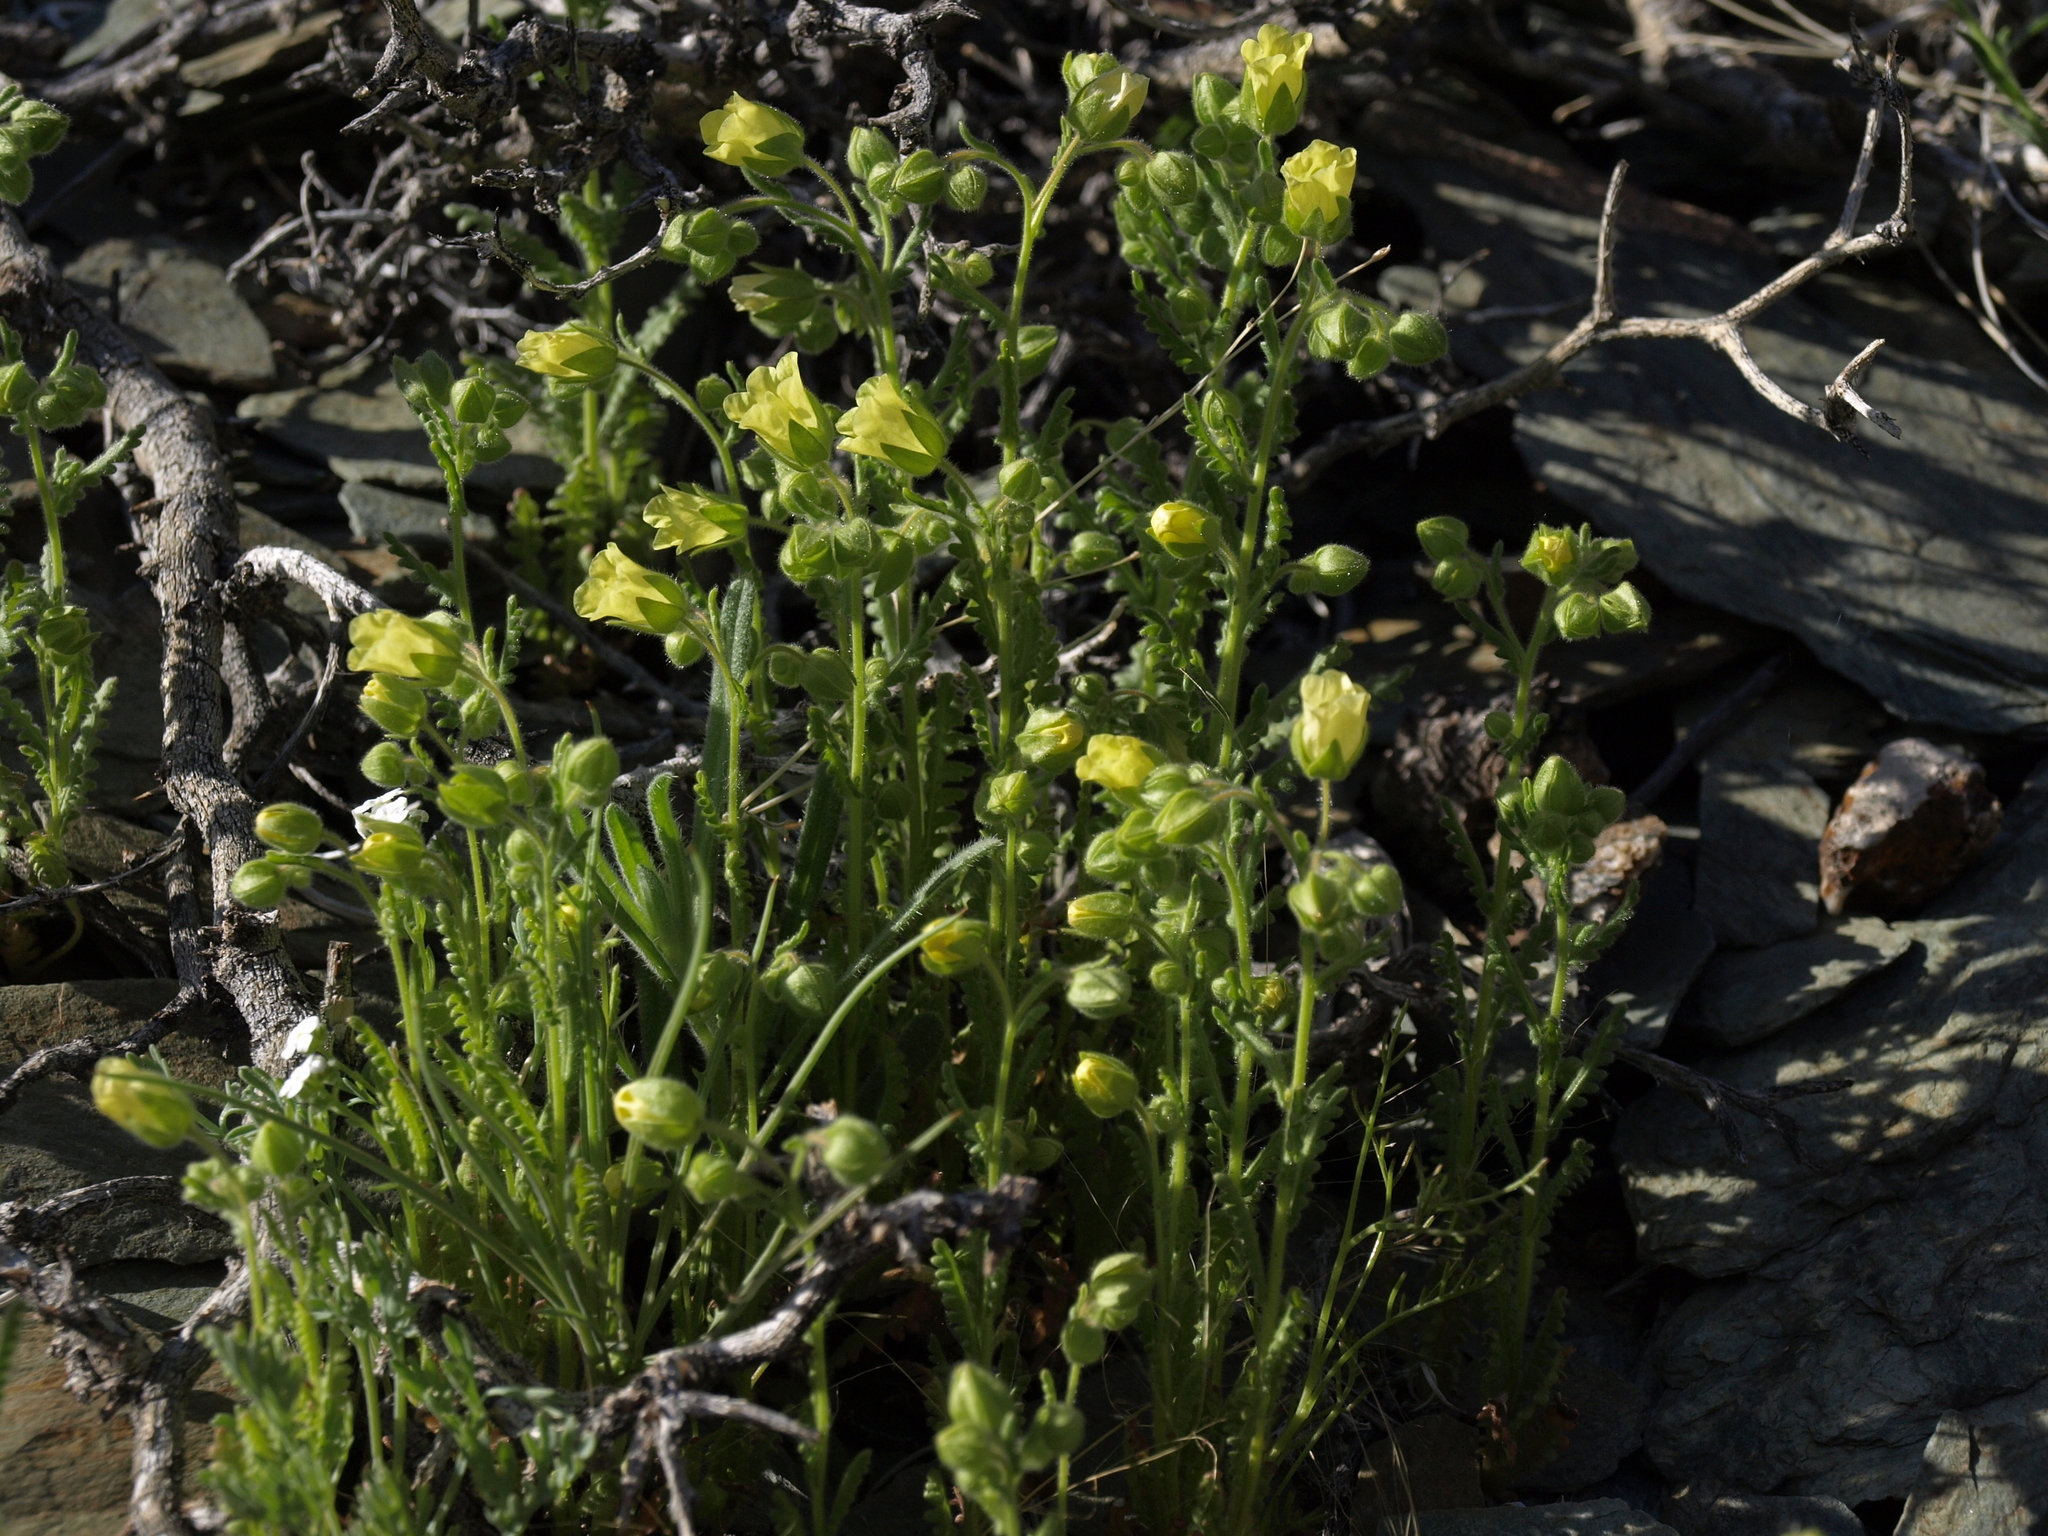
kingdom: Plantae
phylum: Tracheophyta
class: Magnoliopsida
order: Boraginales
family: Hydrophyllaceae
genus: Emmenanthe
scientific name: Emmenanthe penduliflora
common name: Whispering-bells
